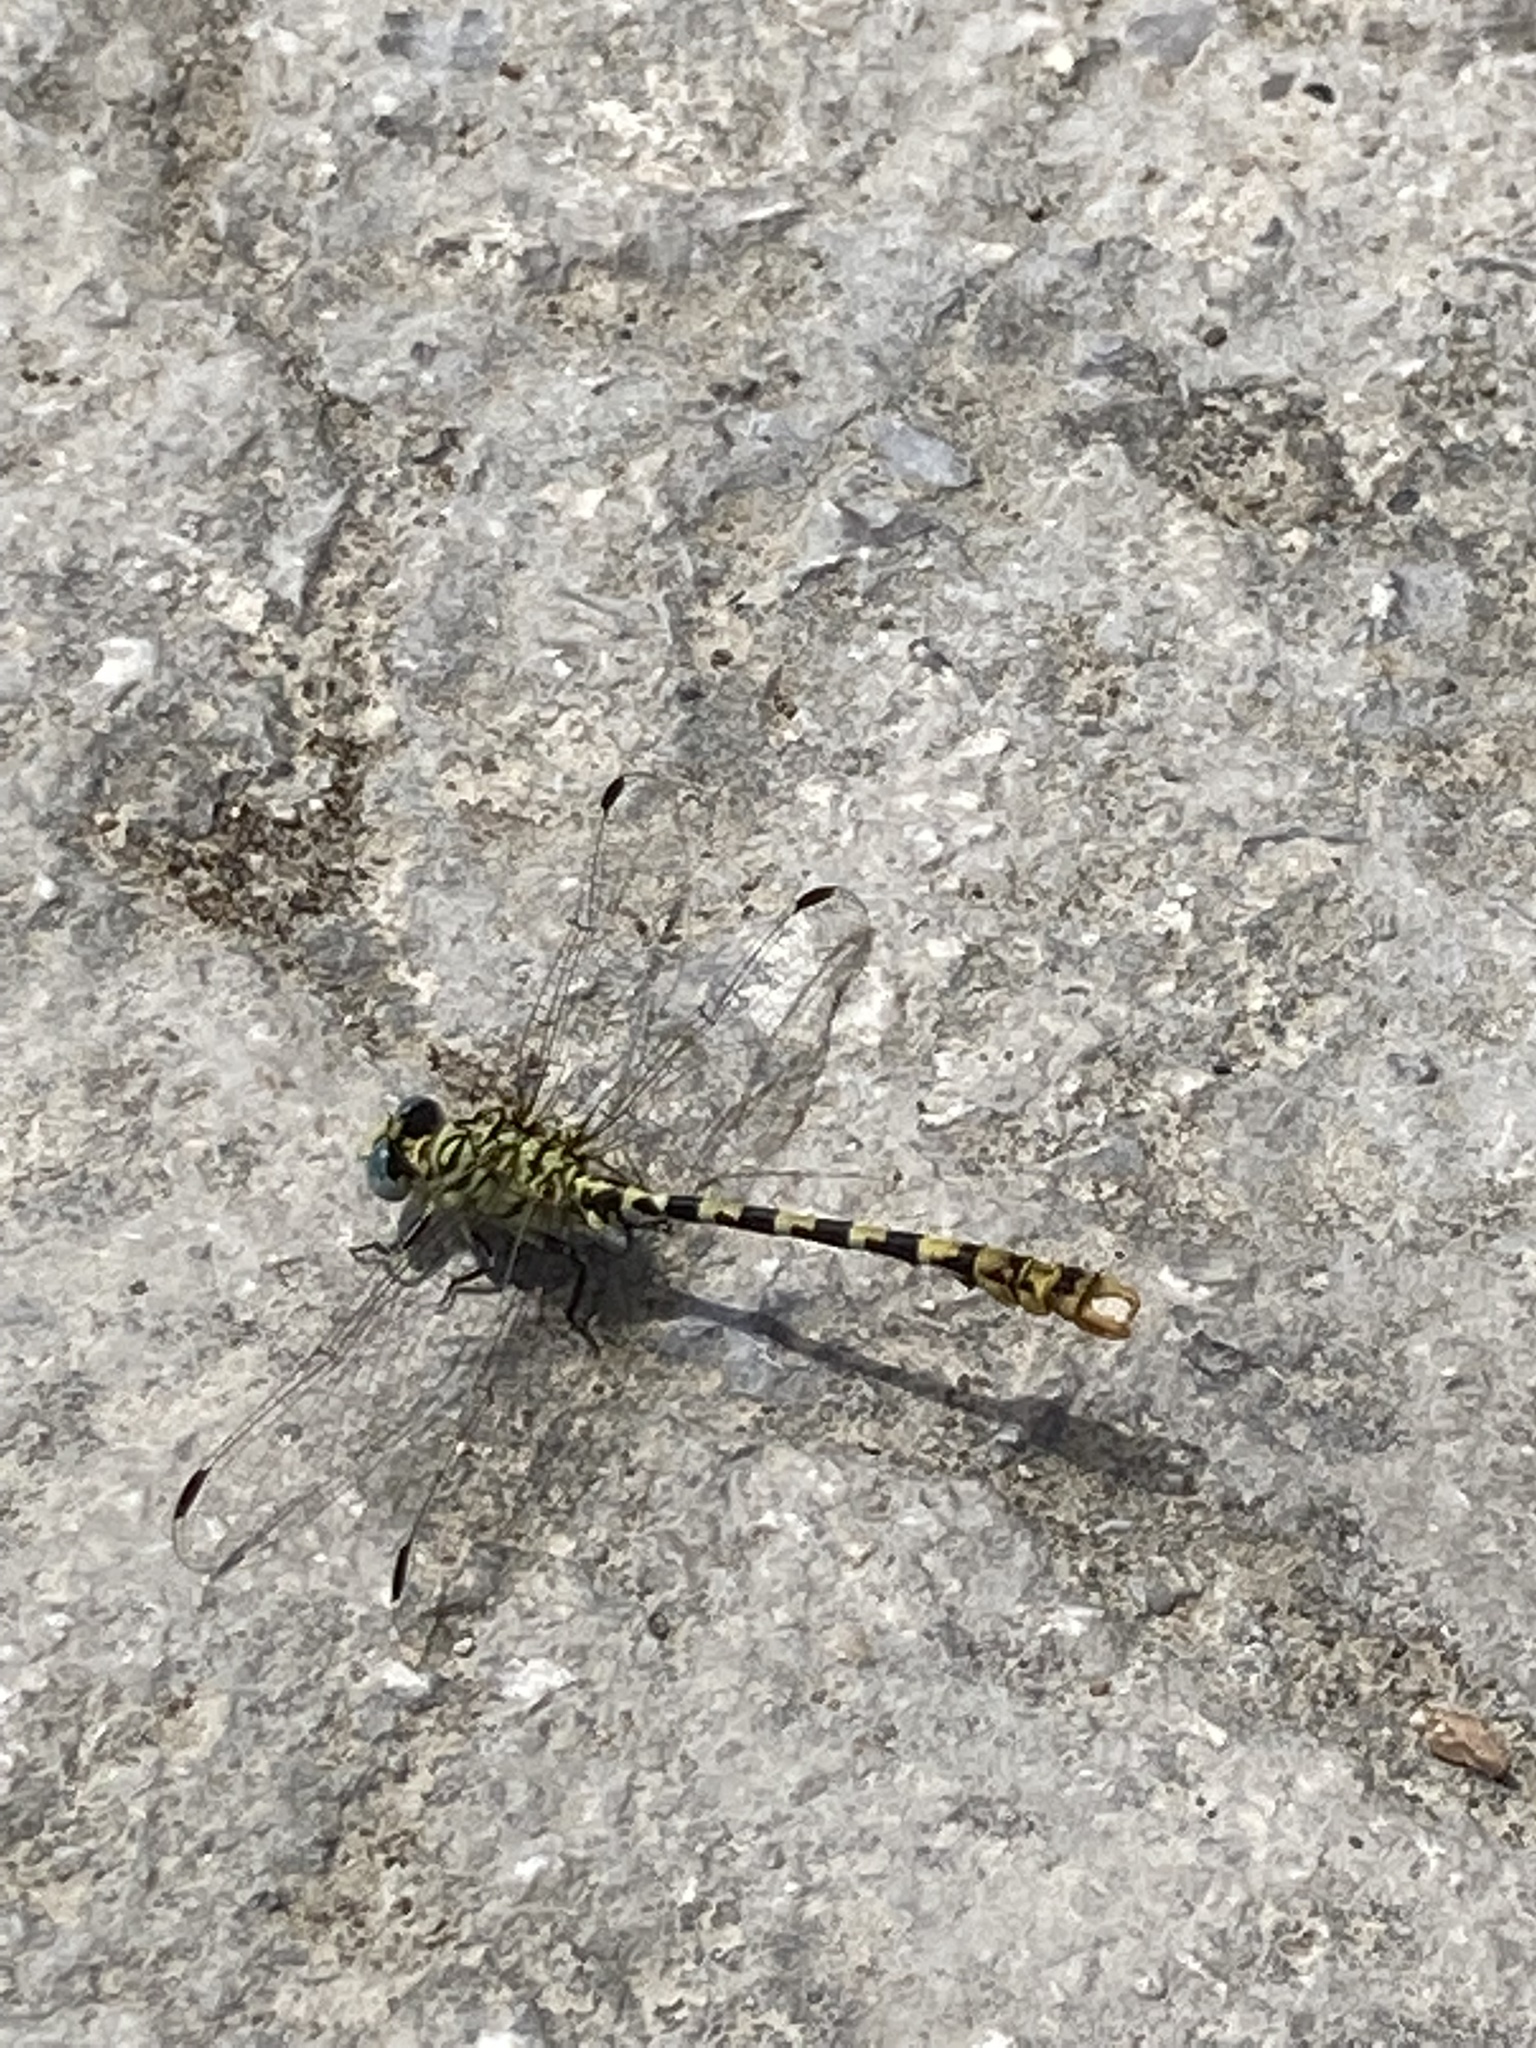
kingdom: Animalia
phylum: Arthropoda
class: Insecta
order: Odonata
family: Gomphidae
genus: Onychogomphus
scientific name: Onychogomphus forcipatus
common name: Small pincertail
